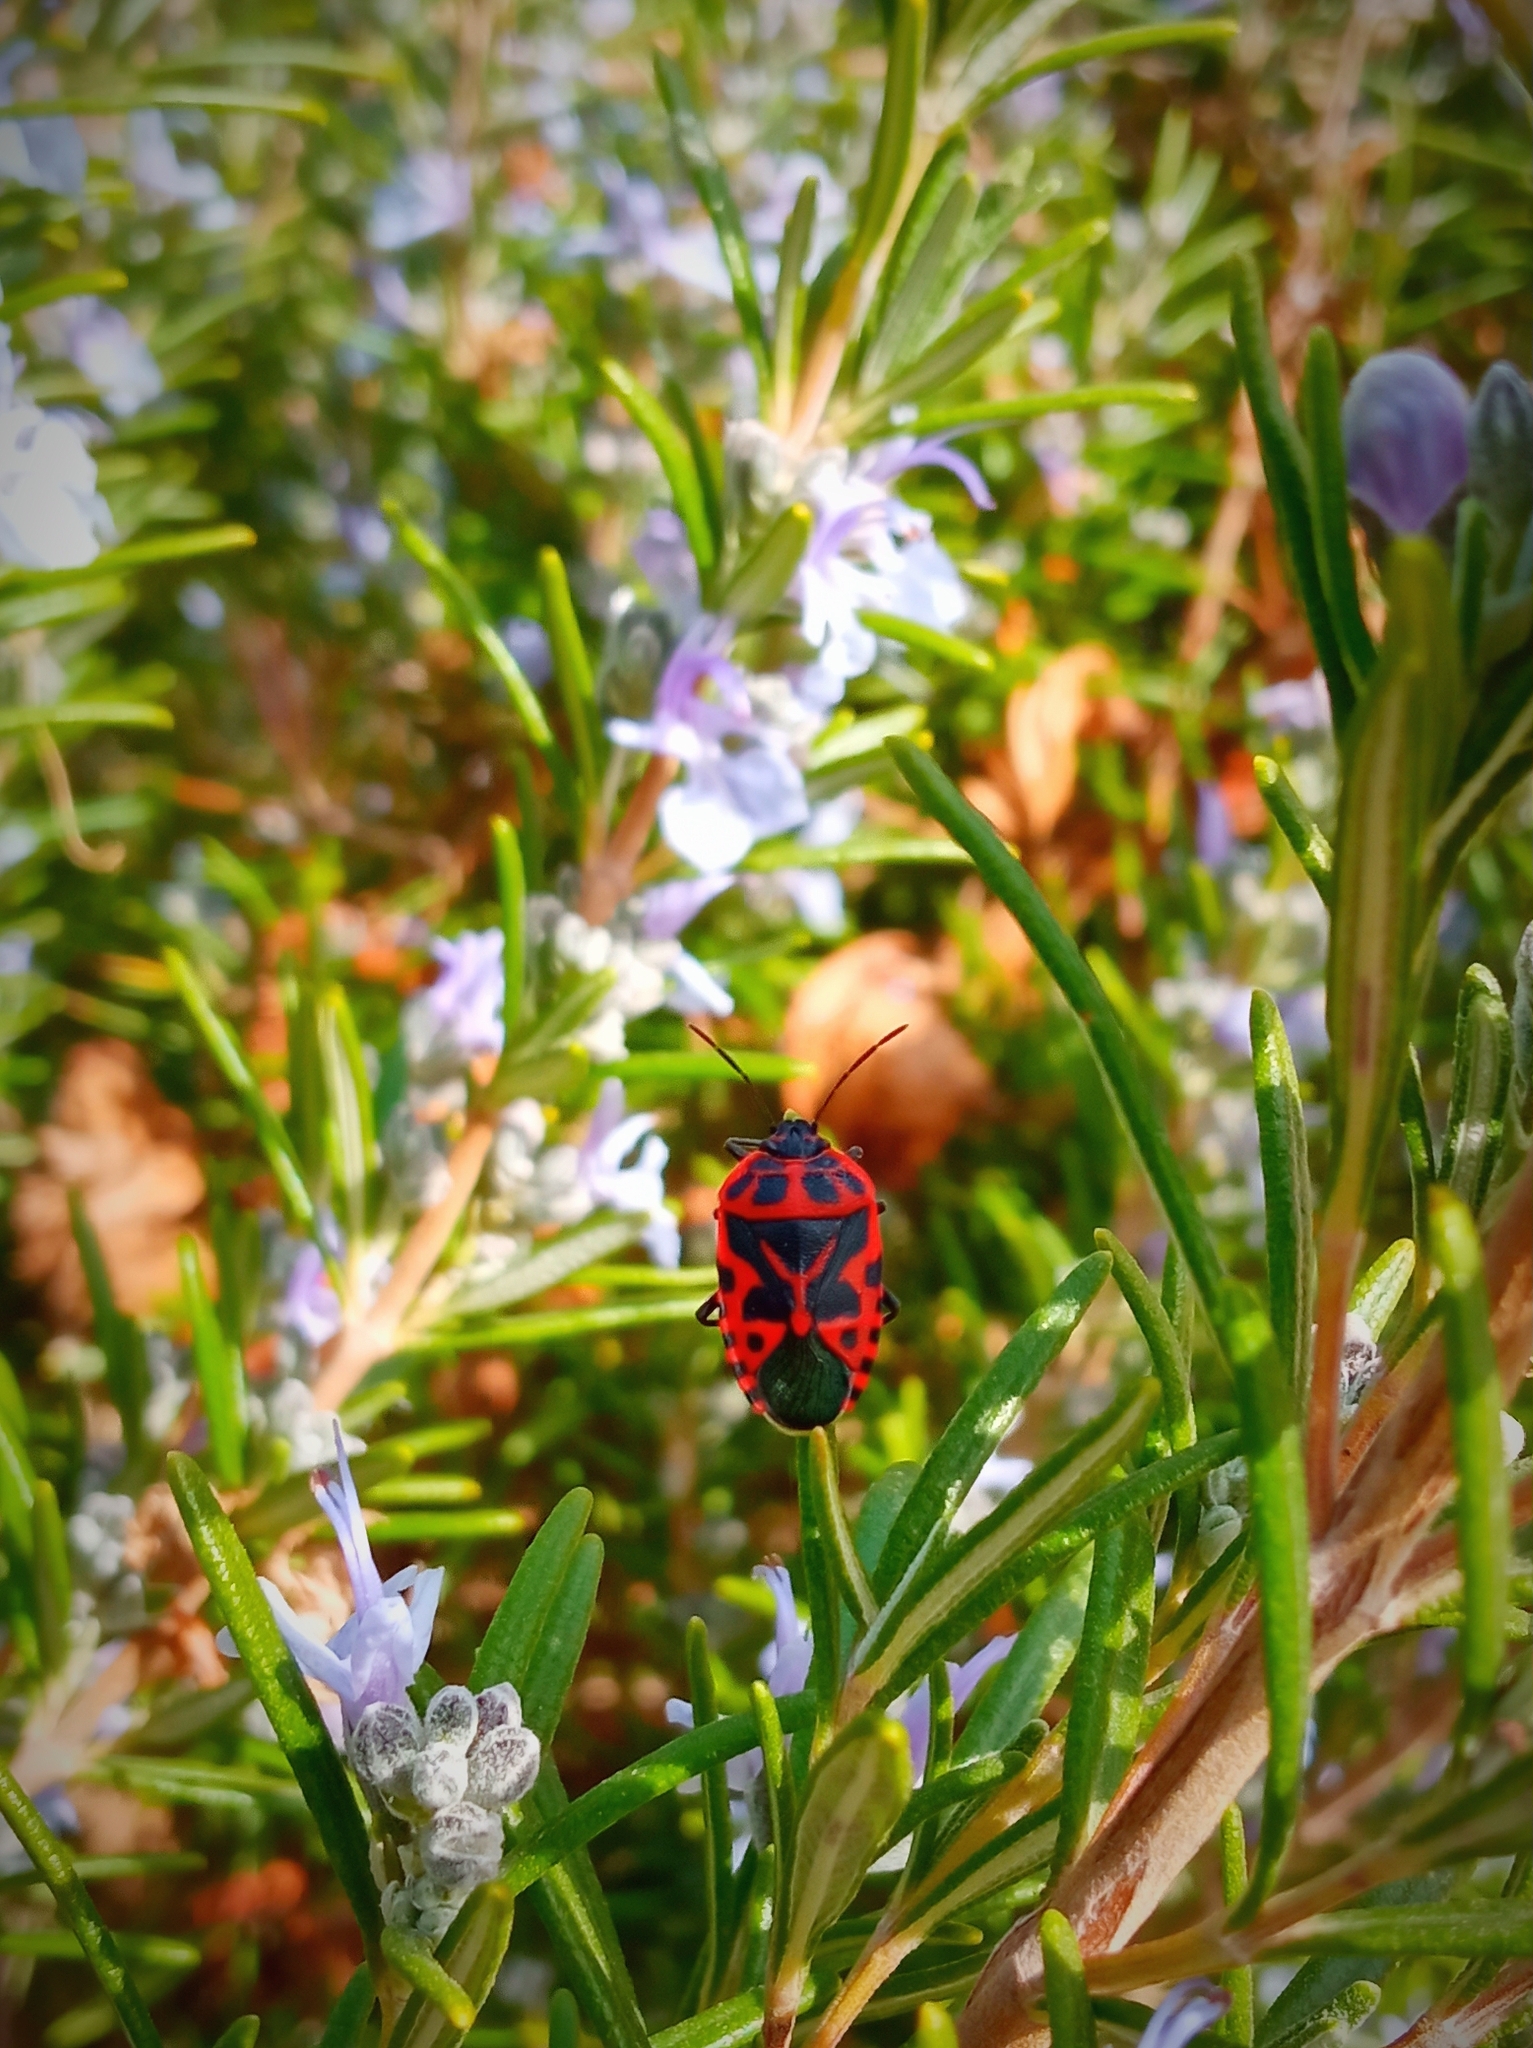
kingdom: Animalia
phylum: Arthropoda
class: Insecta
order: Hemiptera
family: Pentatomidae
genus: Eurydema
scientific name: Eurydema ventralis
